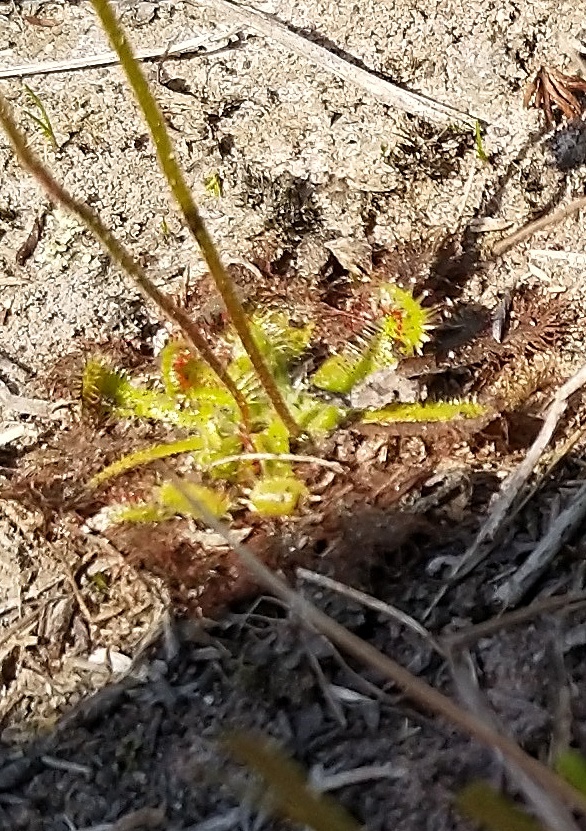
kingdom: Plantae
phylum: Tracheophyta
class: Magnoliopsida
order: Caryophyllales
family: Droseraceae
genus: Drosera
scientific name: Drosera natalensis
